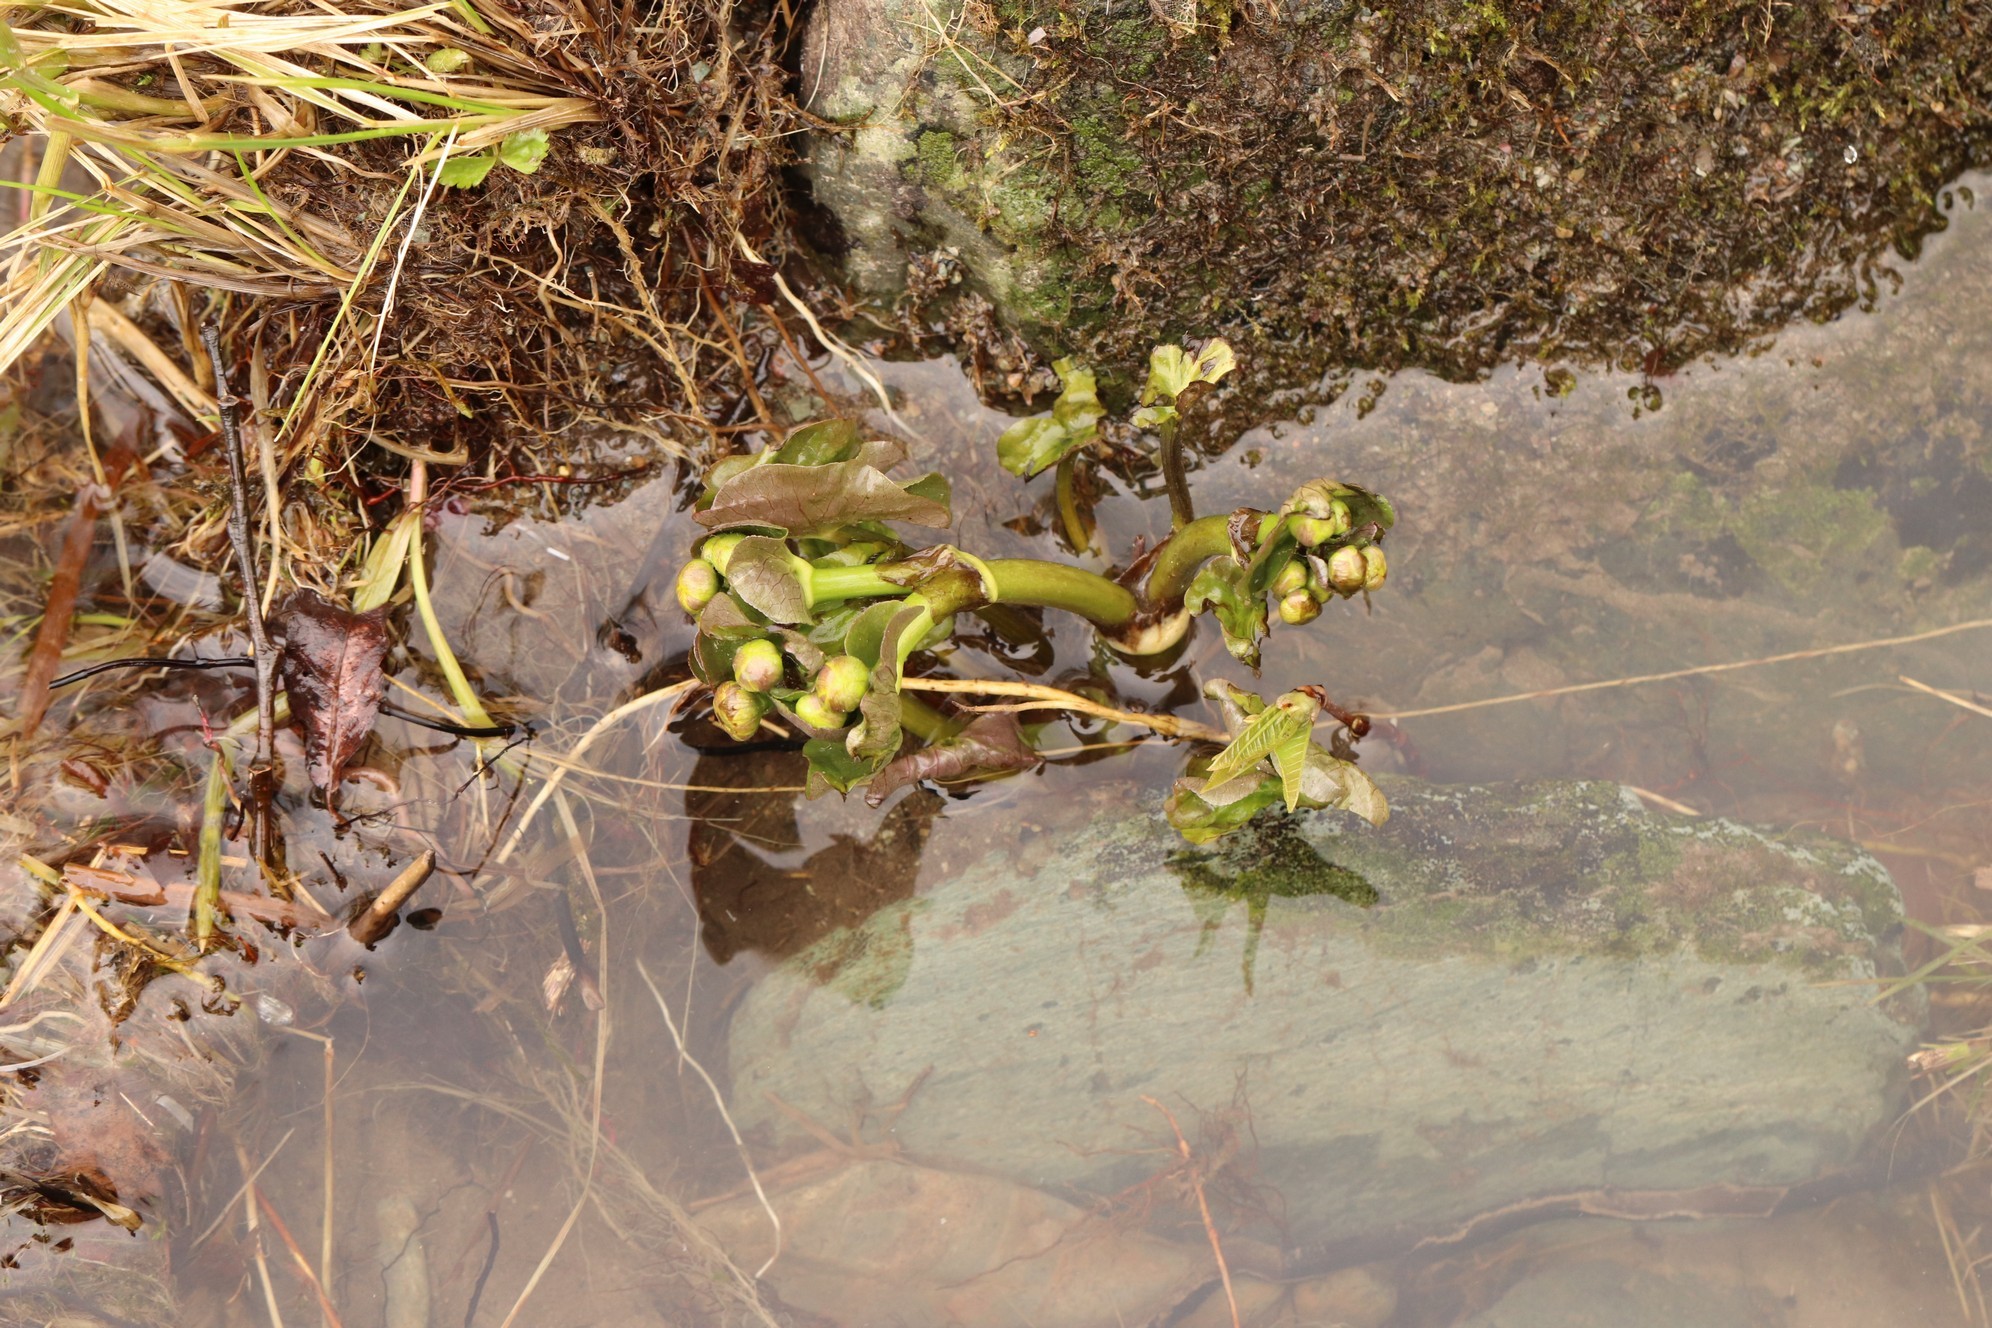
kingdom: Plantae
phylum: Tracheophyta
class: Magnoliopsida
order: Ranunculales
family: Ranunculaceae
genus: Caltha
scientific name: Caltha palustris
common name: Marsh marigold
